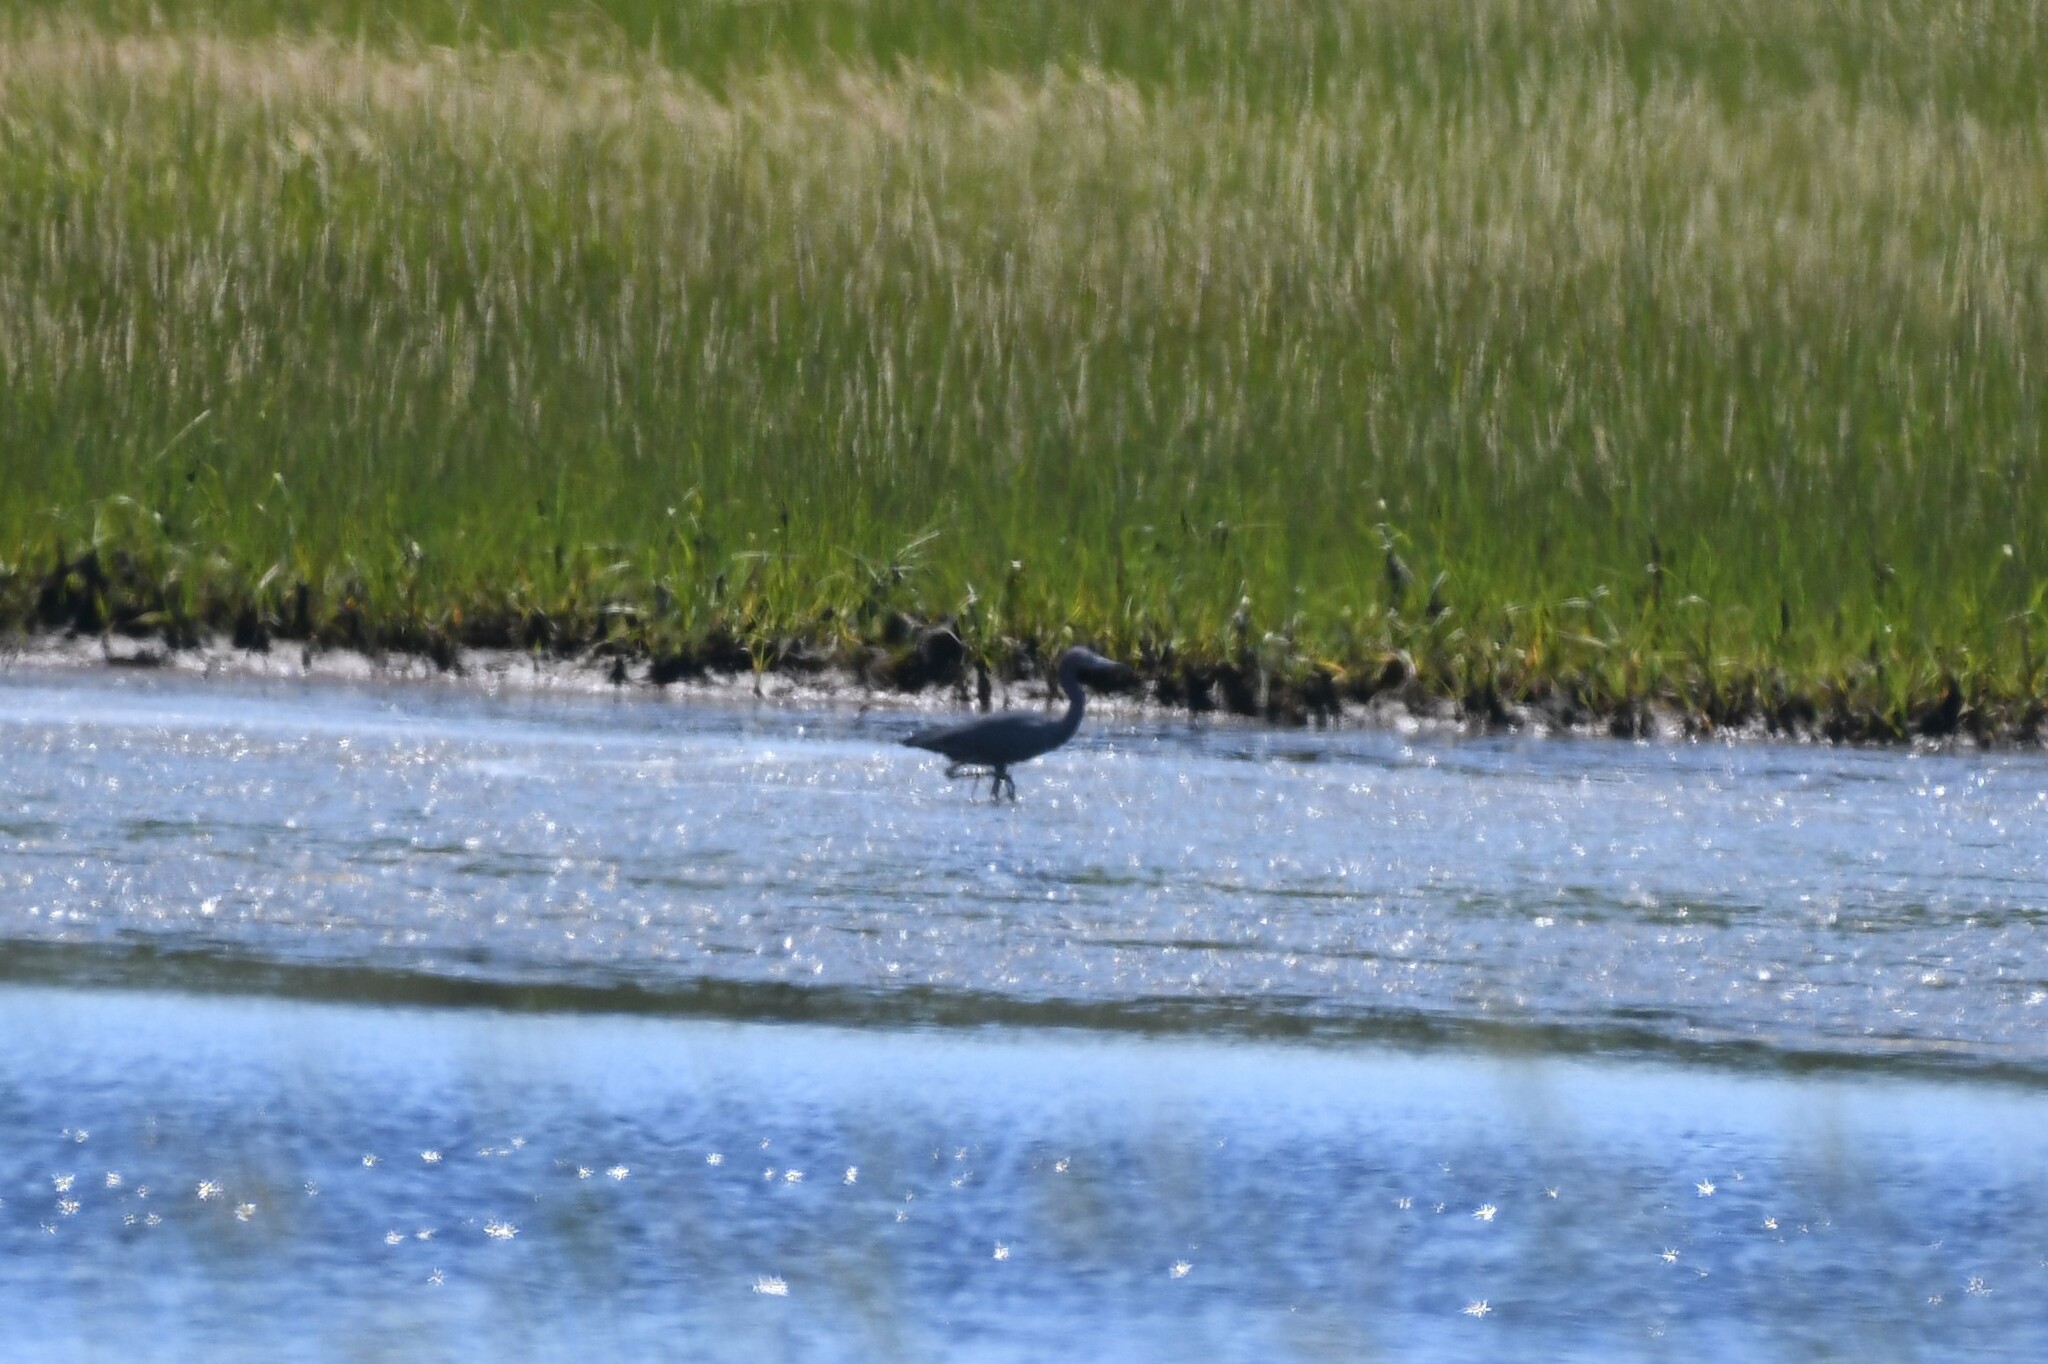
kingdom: Animalia
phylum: Chordata
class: Aves
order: Pelecaniformes
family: Ardeidae
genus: Egretta
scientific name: Egretta caerulea
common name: Little blue heron
